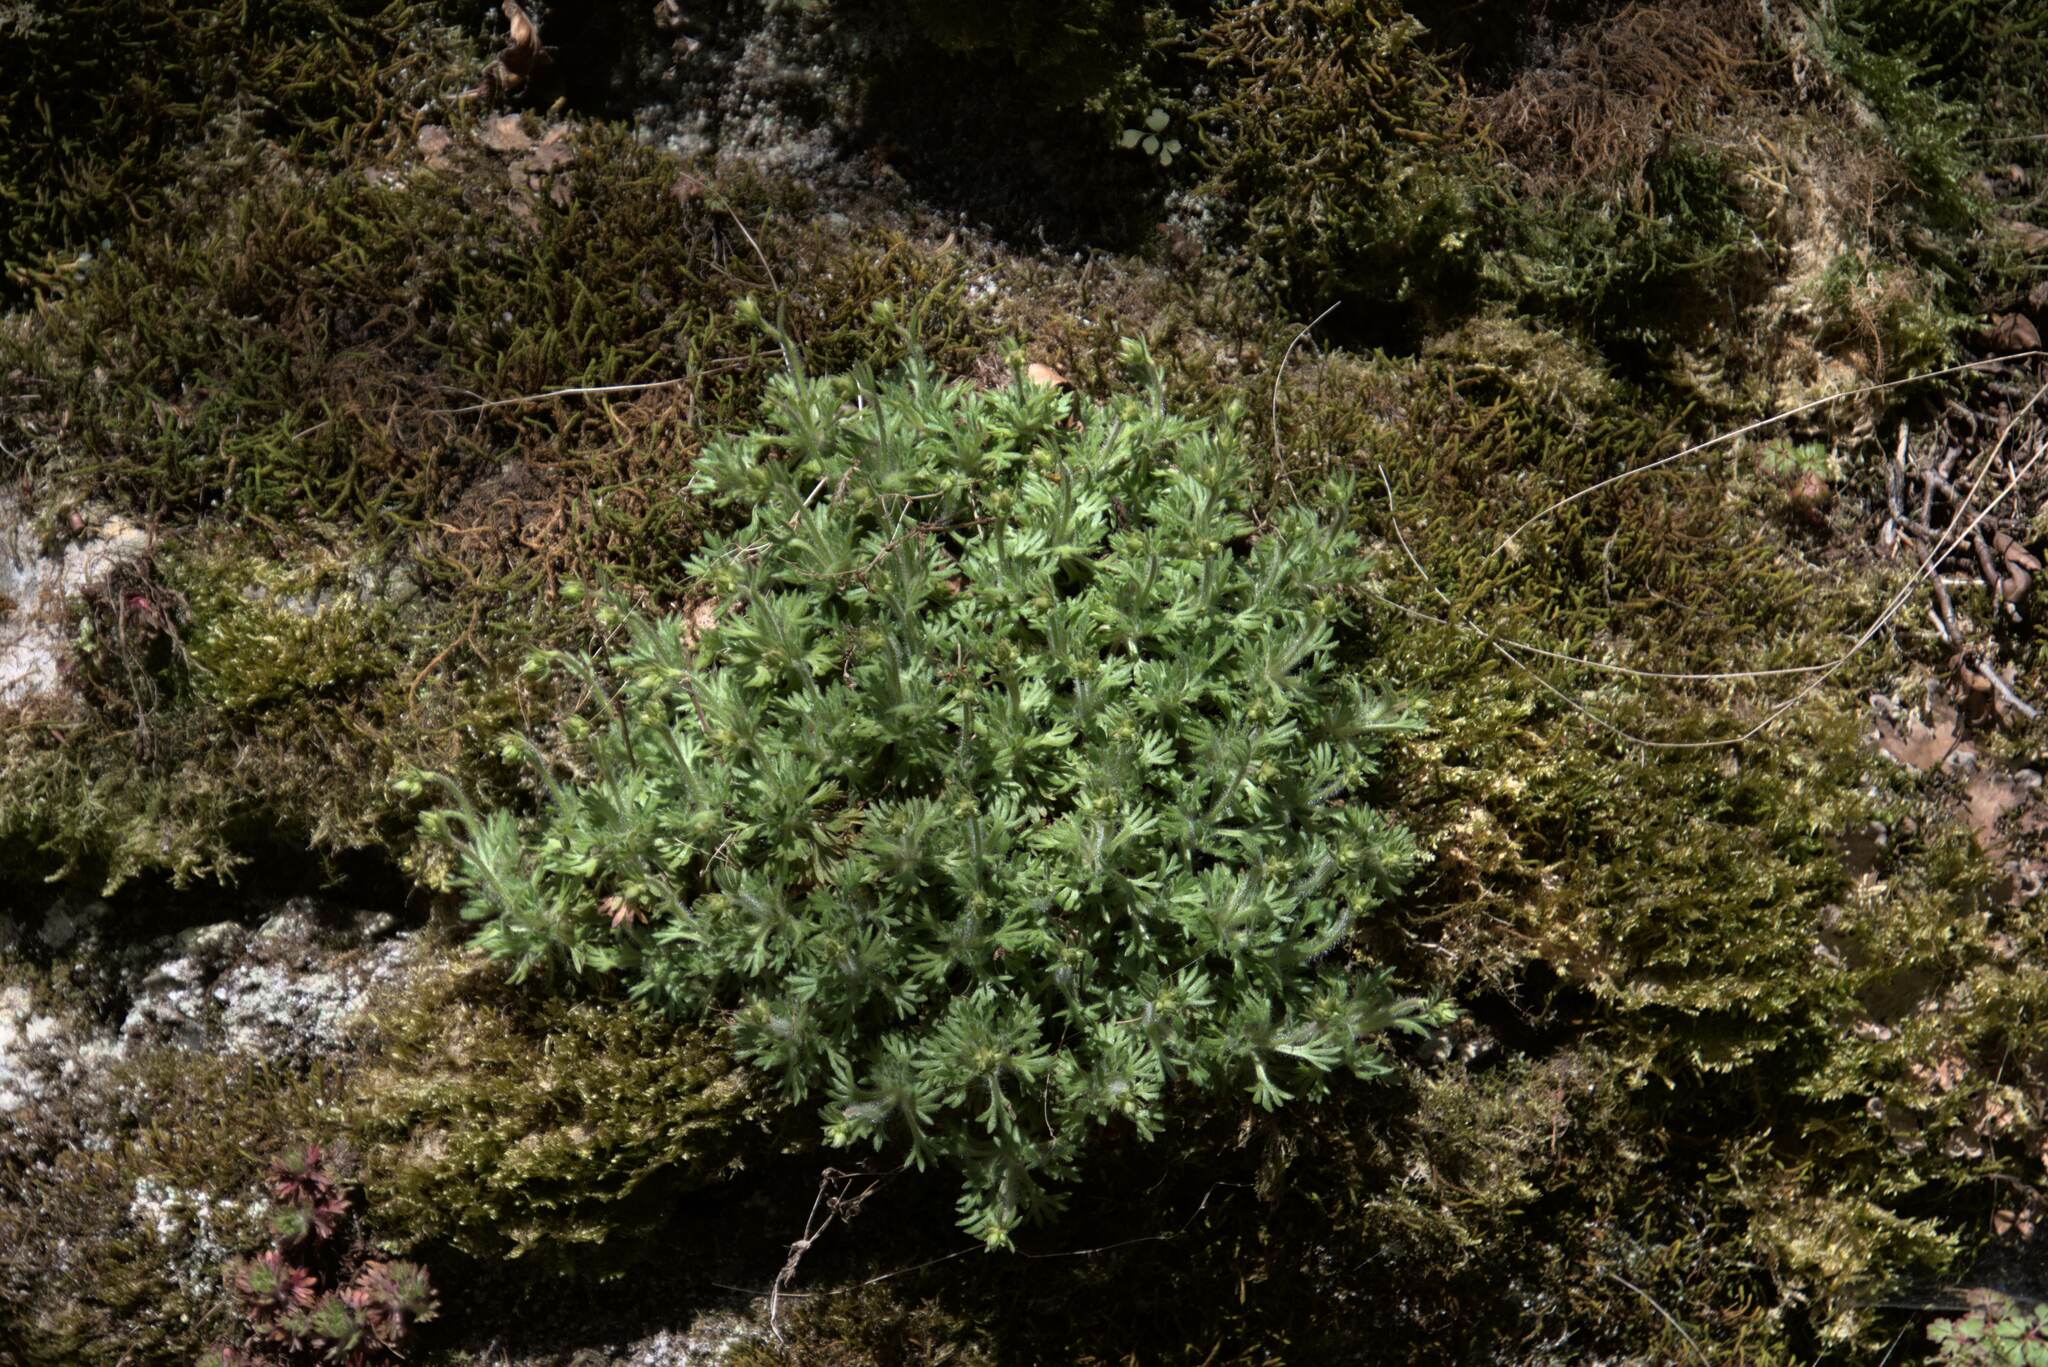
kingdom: Plantae
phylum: Tracheophyta
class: Magnoliopsida
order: Saxifragales
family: Saxifragaceae
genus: Saxifraga
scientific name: Saxifraga rosacea
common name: Irish saxifrage
